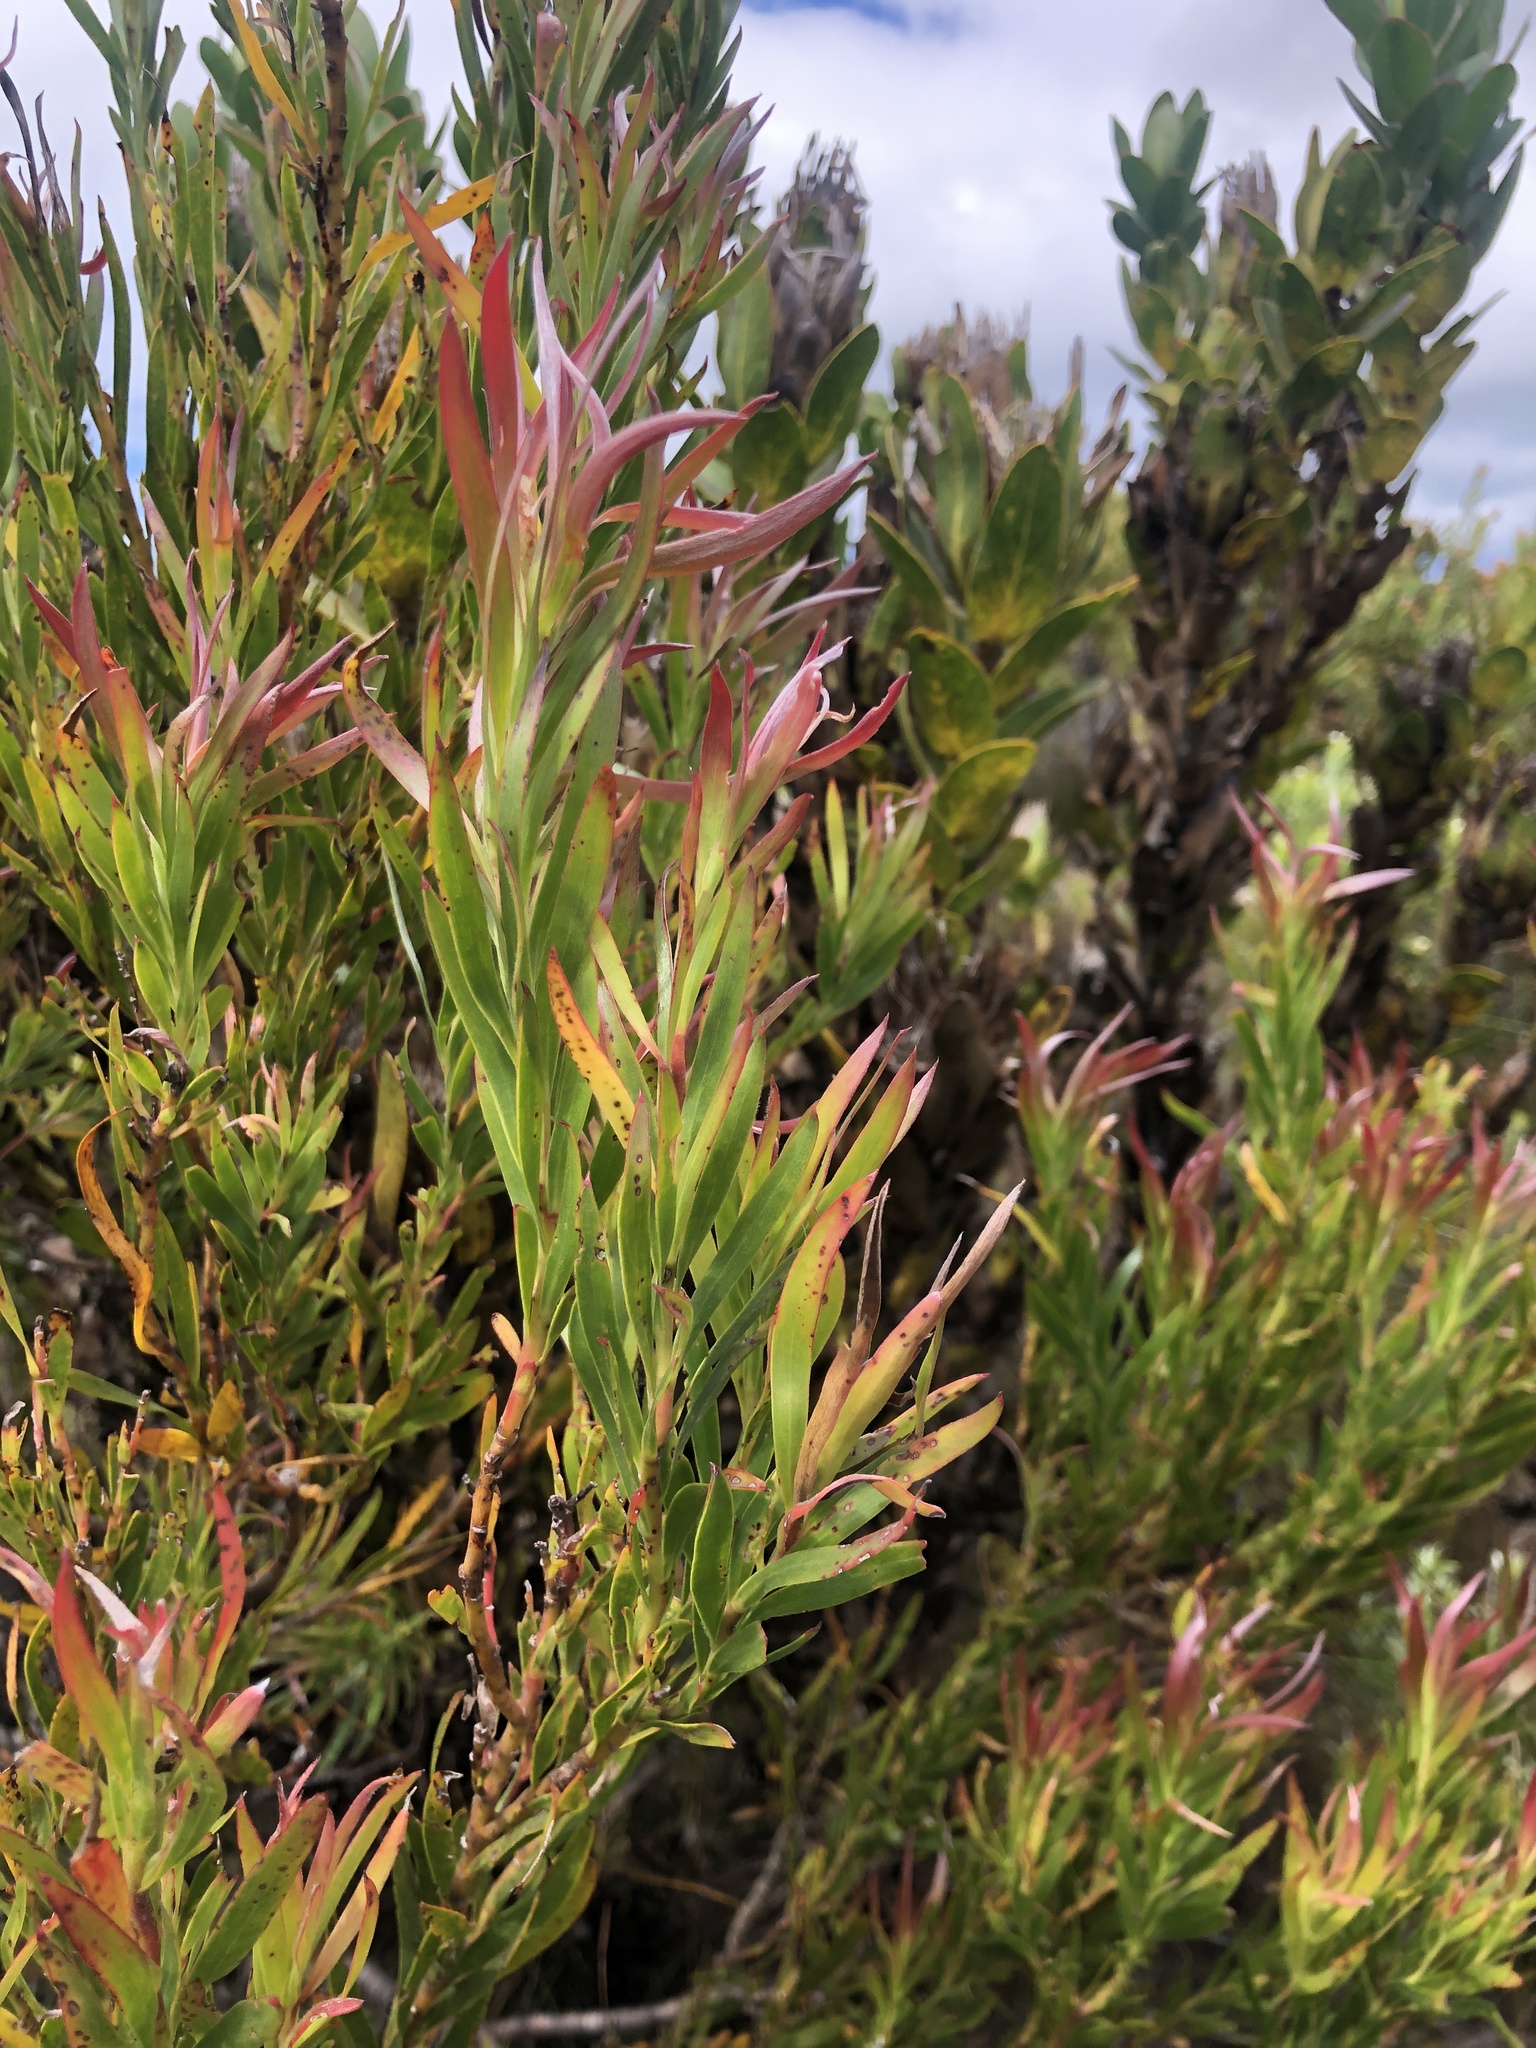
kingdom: Plantae
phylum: Tracheophyta
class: Magnoliopsida
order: Proteales
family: Proteaceae
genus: Leucadendron
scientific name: Leucadendron xanthoconus
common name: Sickle-leaf conebush
